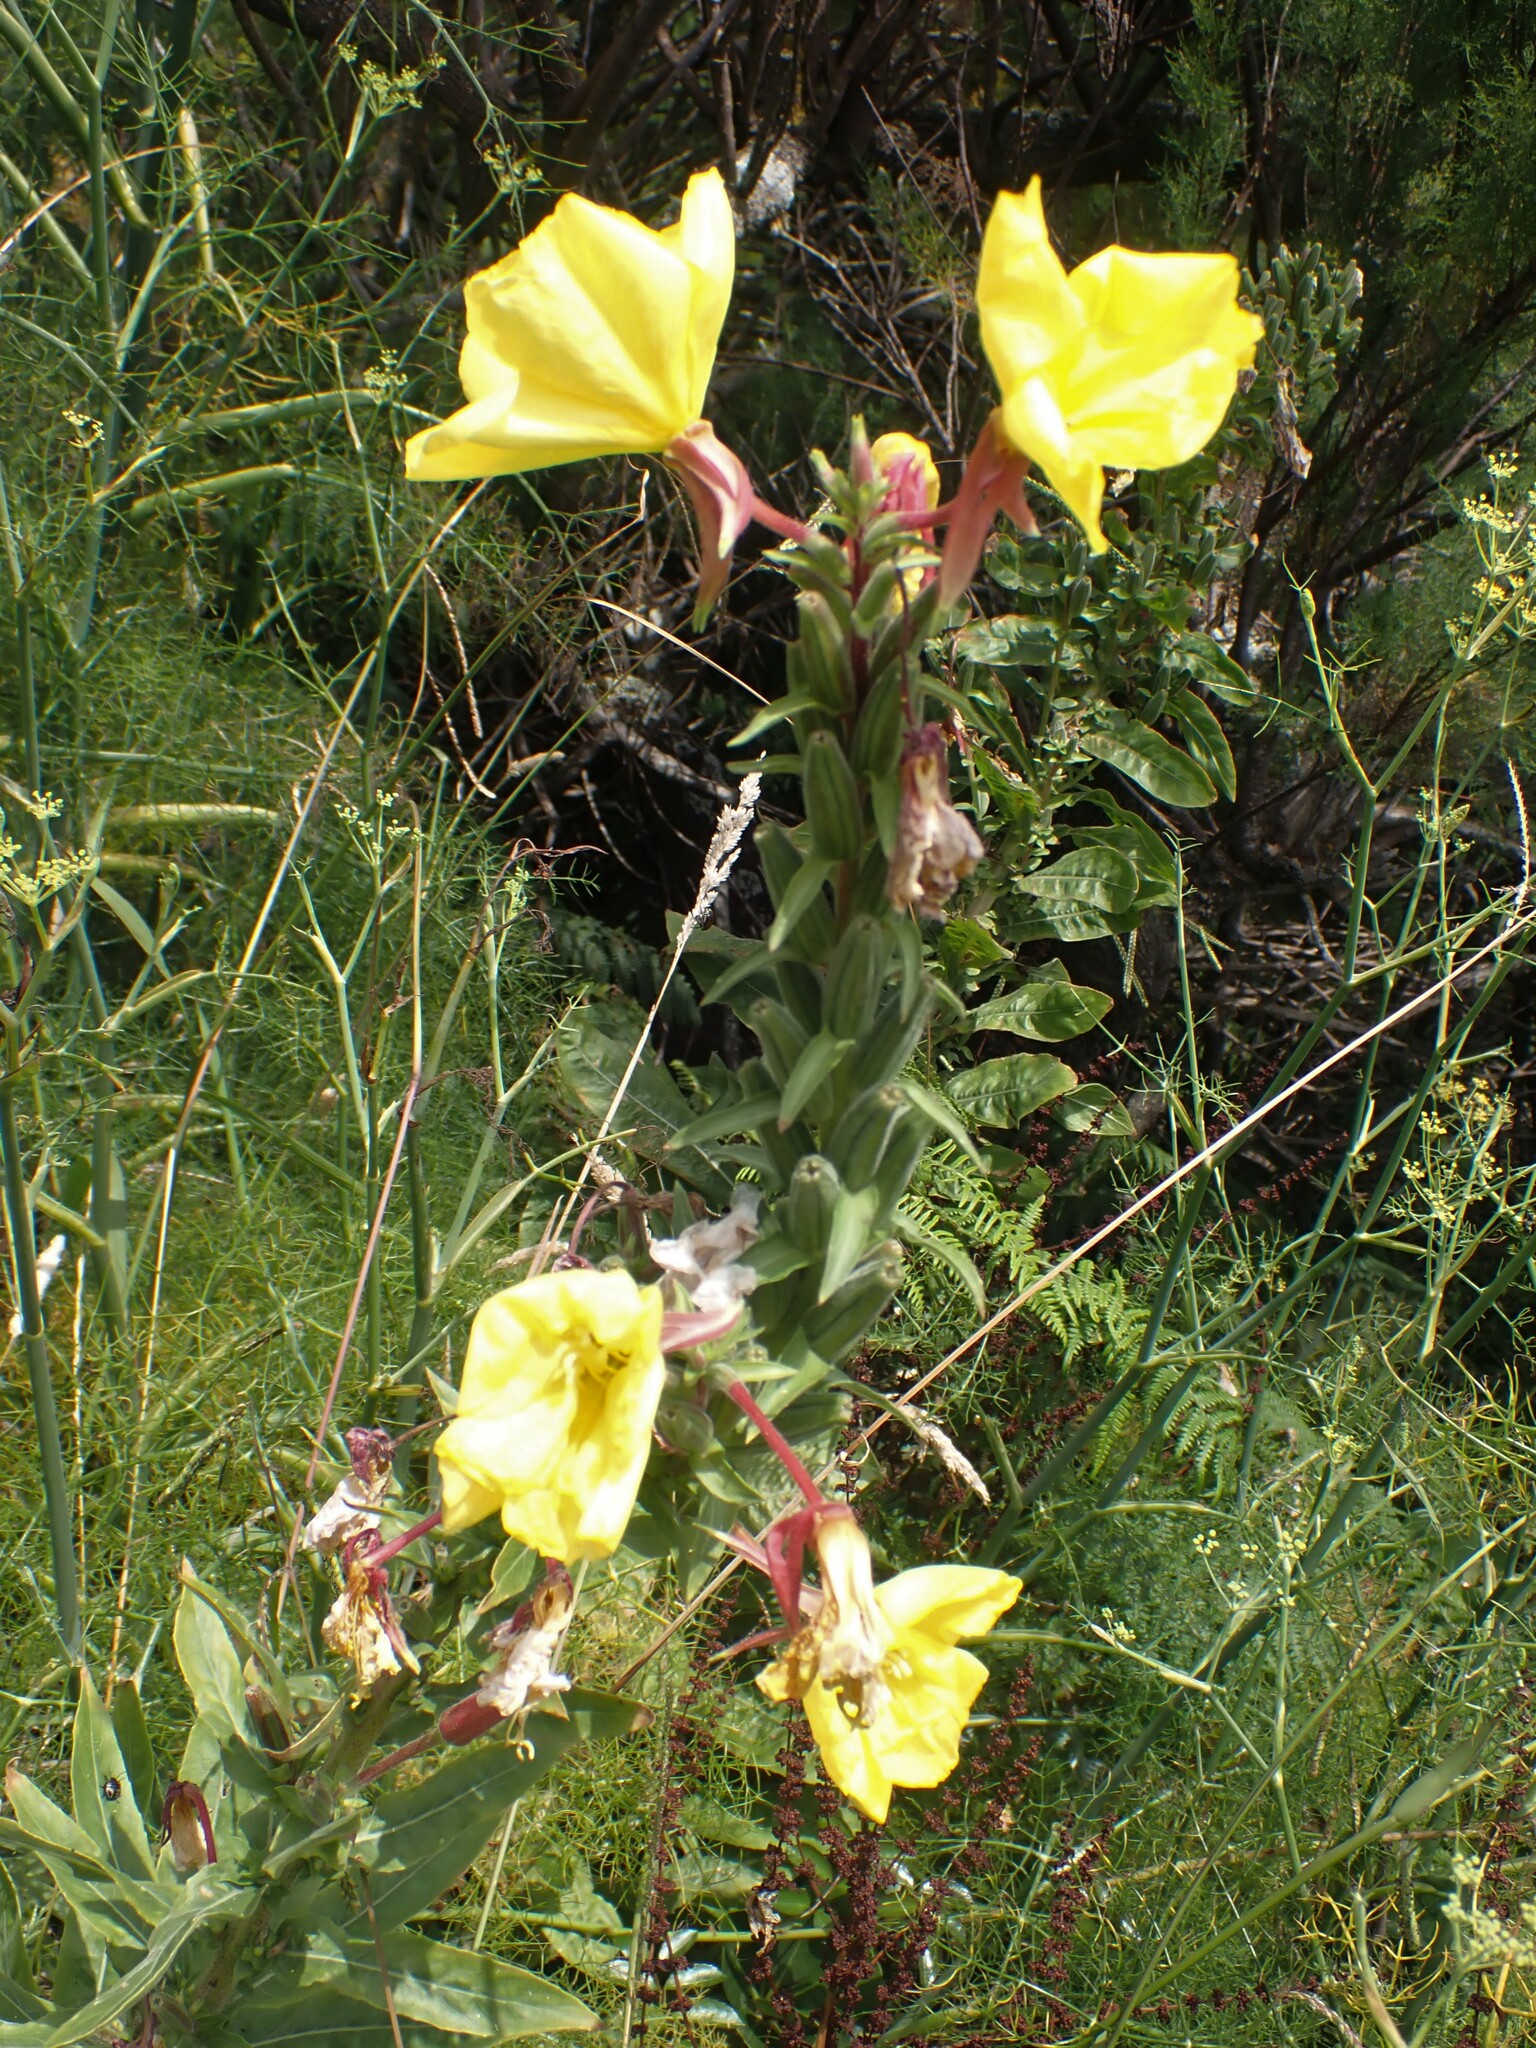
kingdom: Plantae
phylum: Tracheophyta
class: Magnoliopsida
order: Myrtales
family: Onagraceae
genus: Oenothera
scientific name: Oenothera glazioviana
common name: Large-flowered evening-primrose
